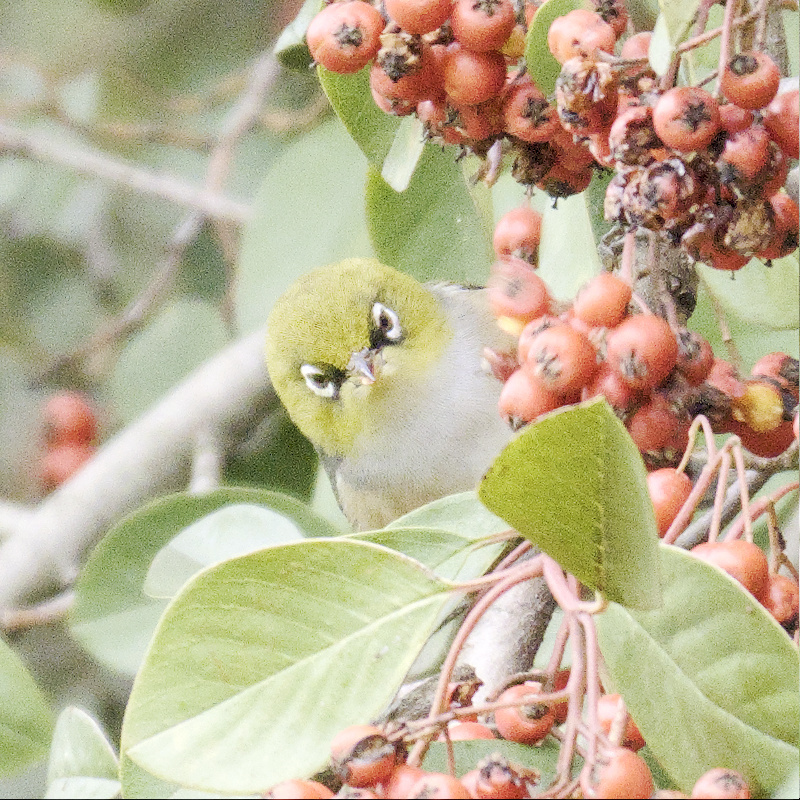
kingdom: Animalia
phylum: Chordata
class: Aves
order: Passeriformes
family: Zosteropidae
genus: Zosterops
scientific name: Zosterops lateralis
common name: Silvereye
